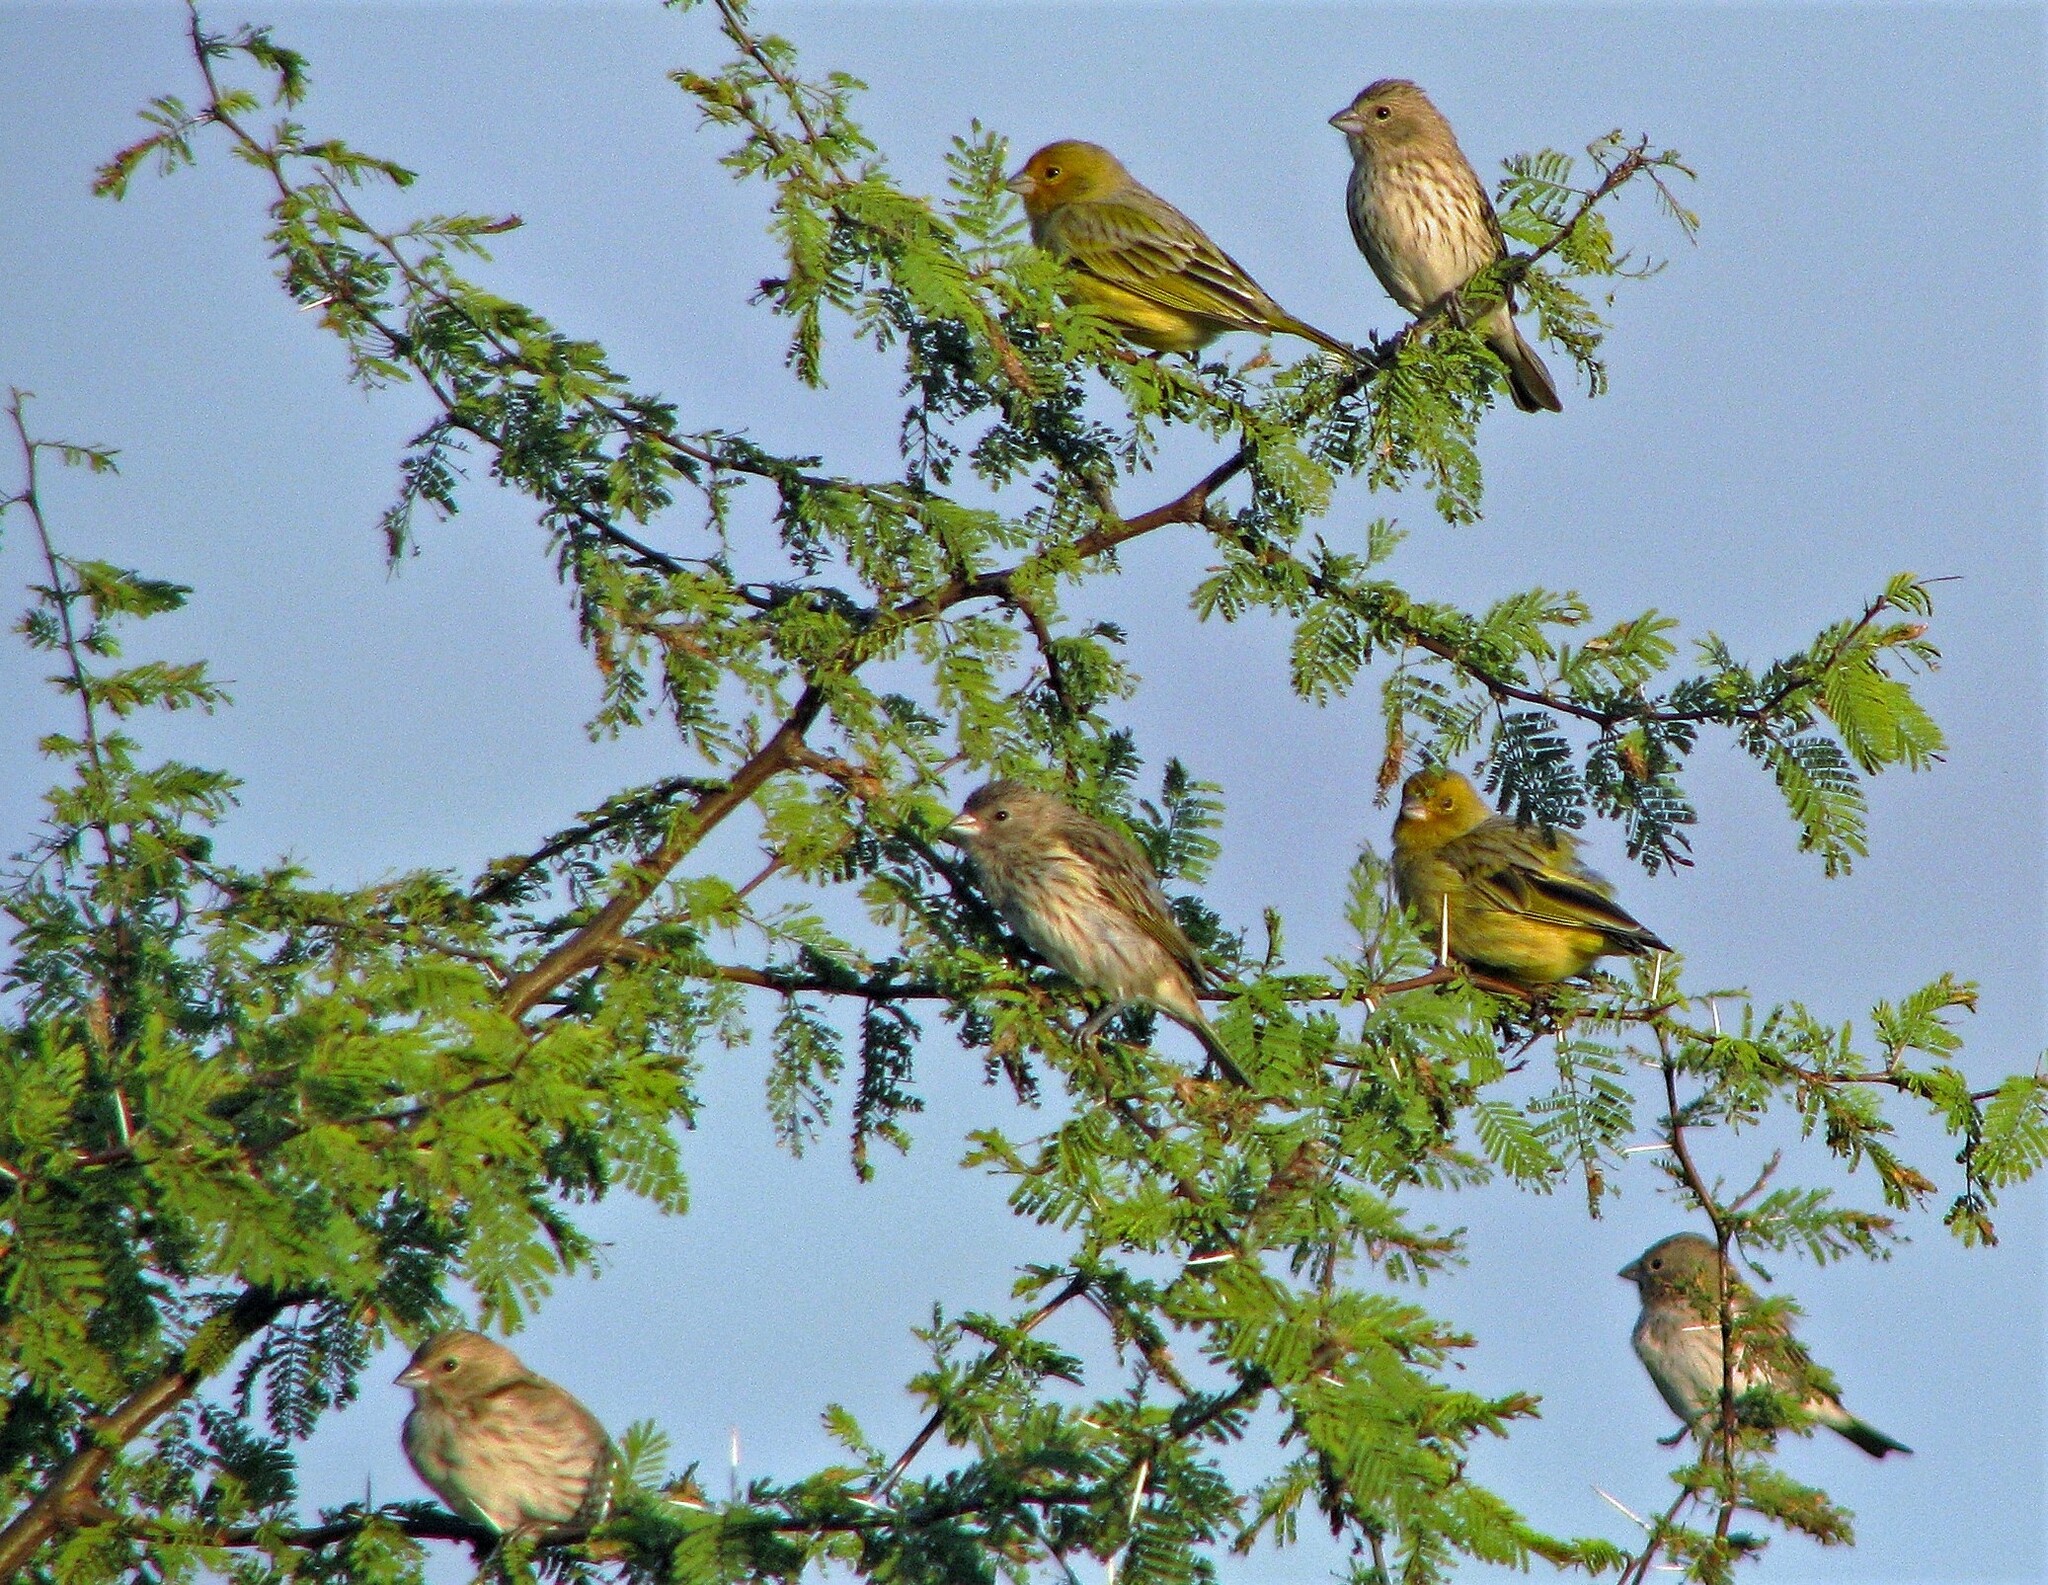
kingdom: Animalia
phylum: Chordata
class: Aves
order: Passeriformes
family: Thraupidae
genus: Sicalis
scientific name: Sicalis flaveola
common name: Saffron finch
